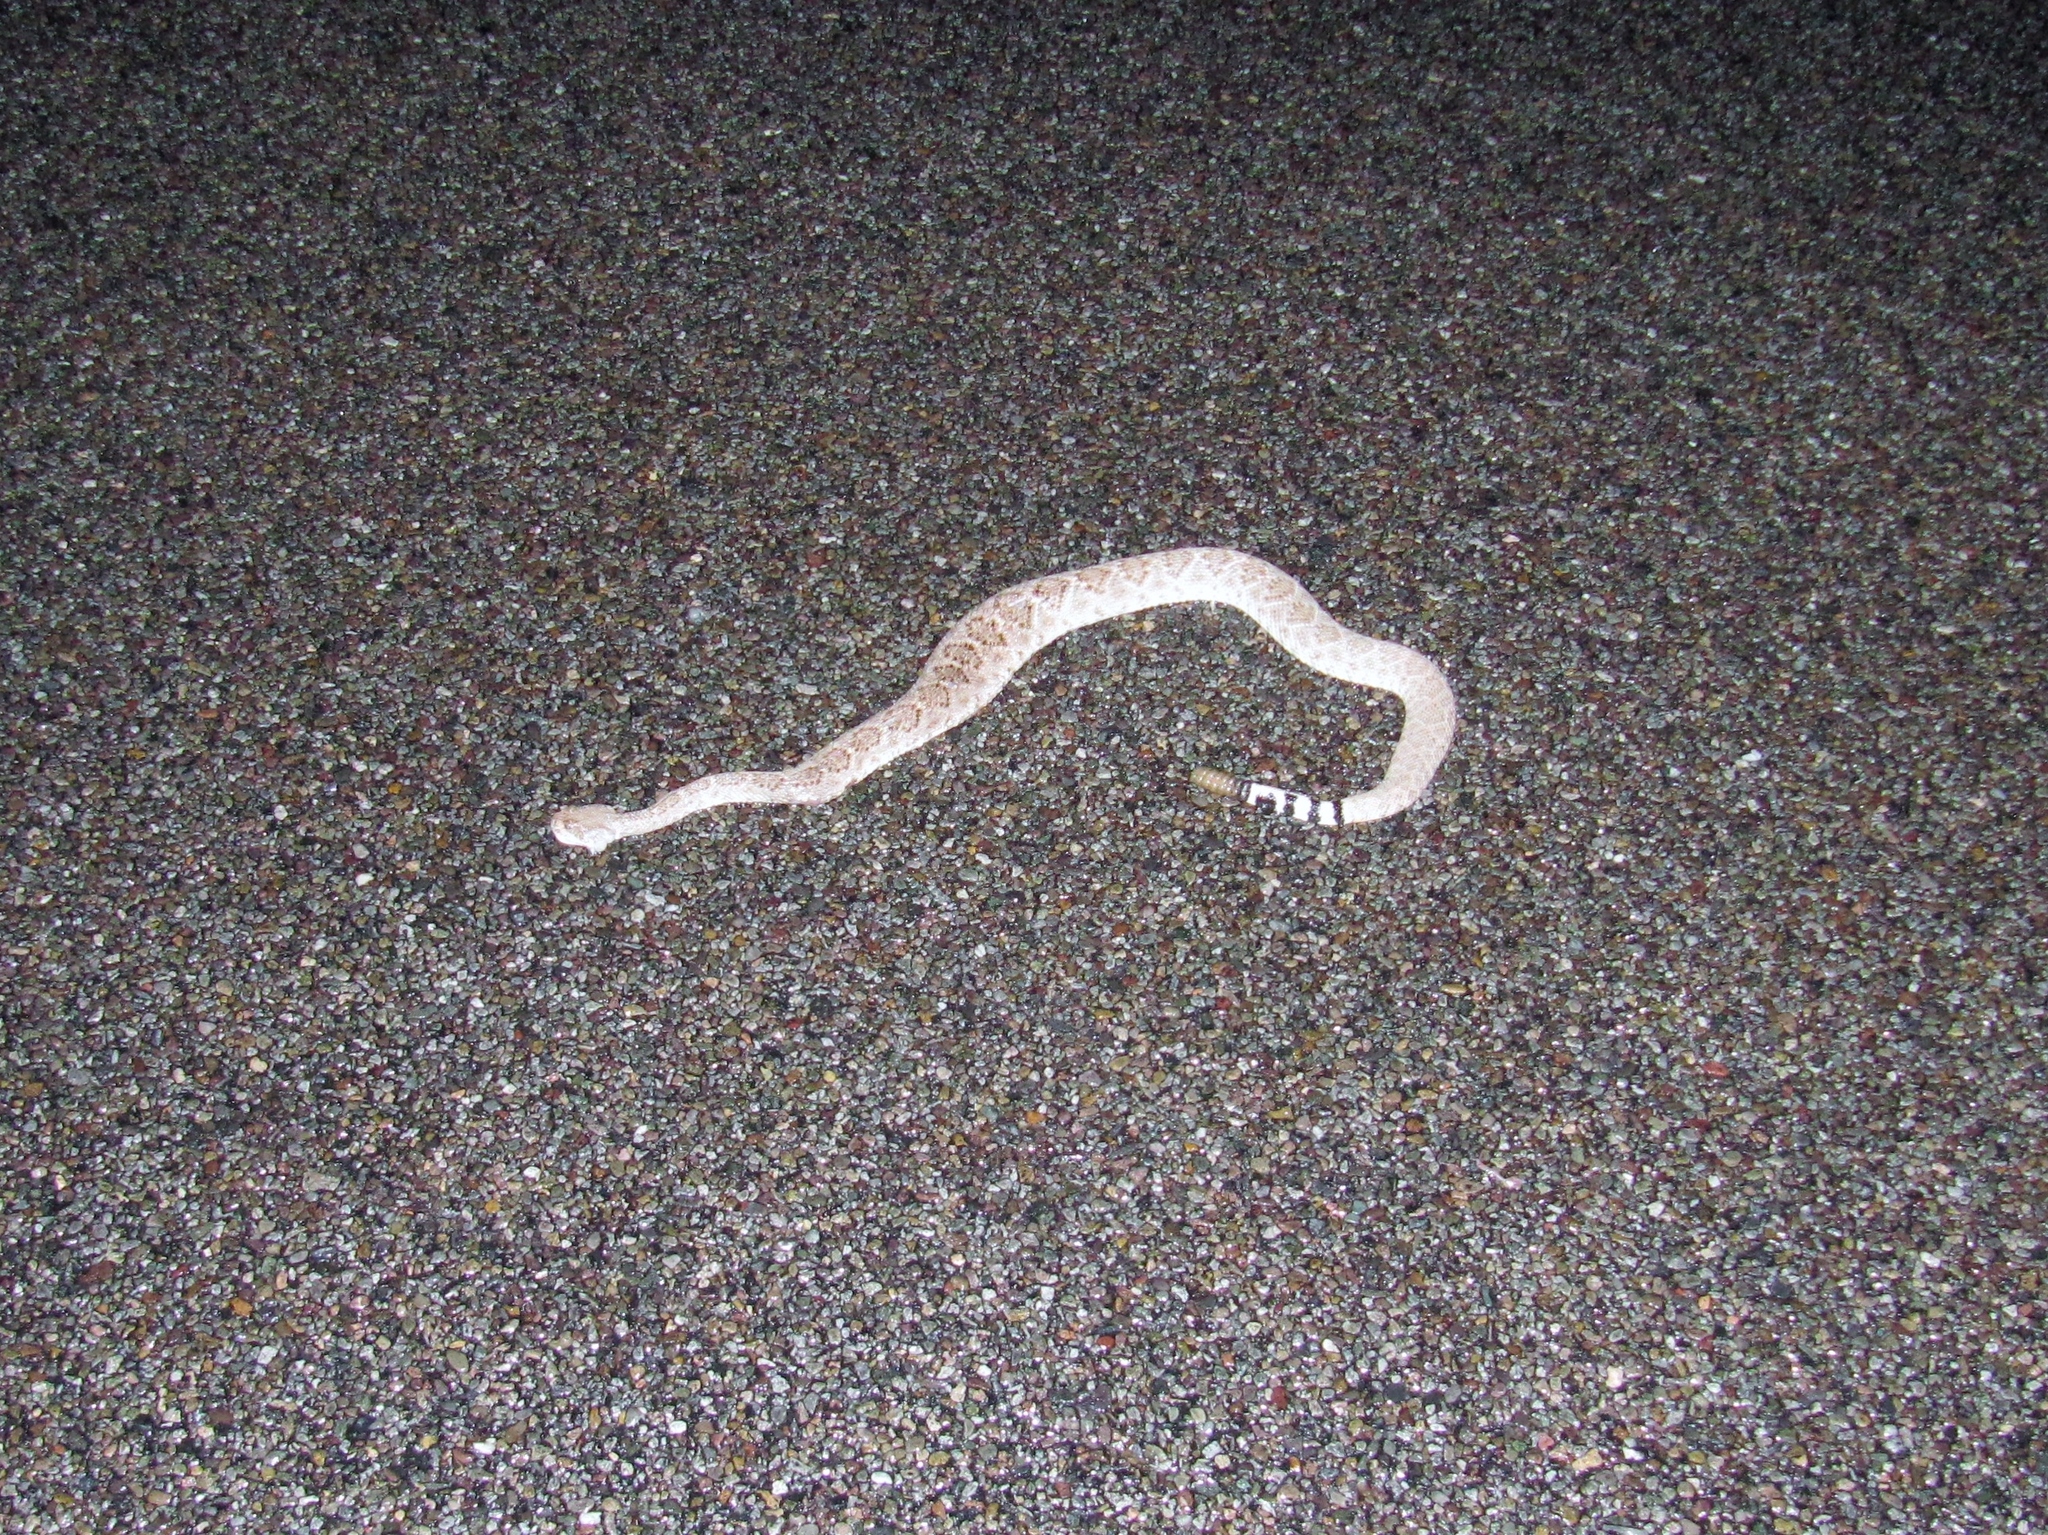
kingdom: Animalia
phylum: Chordata
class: Squamata
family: Viperidae
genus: Crotalus
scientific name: Crotalus atrox
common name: Western diamond-backed rattlesnake
